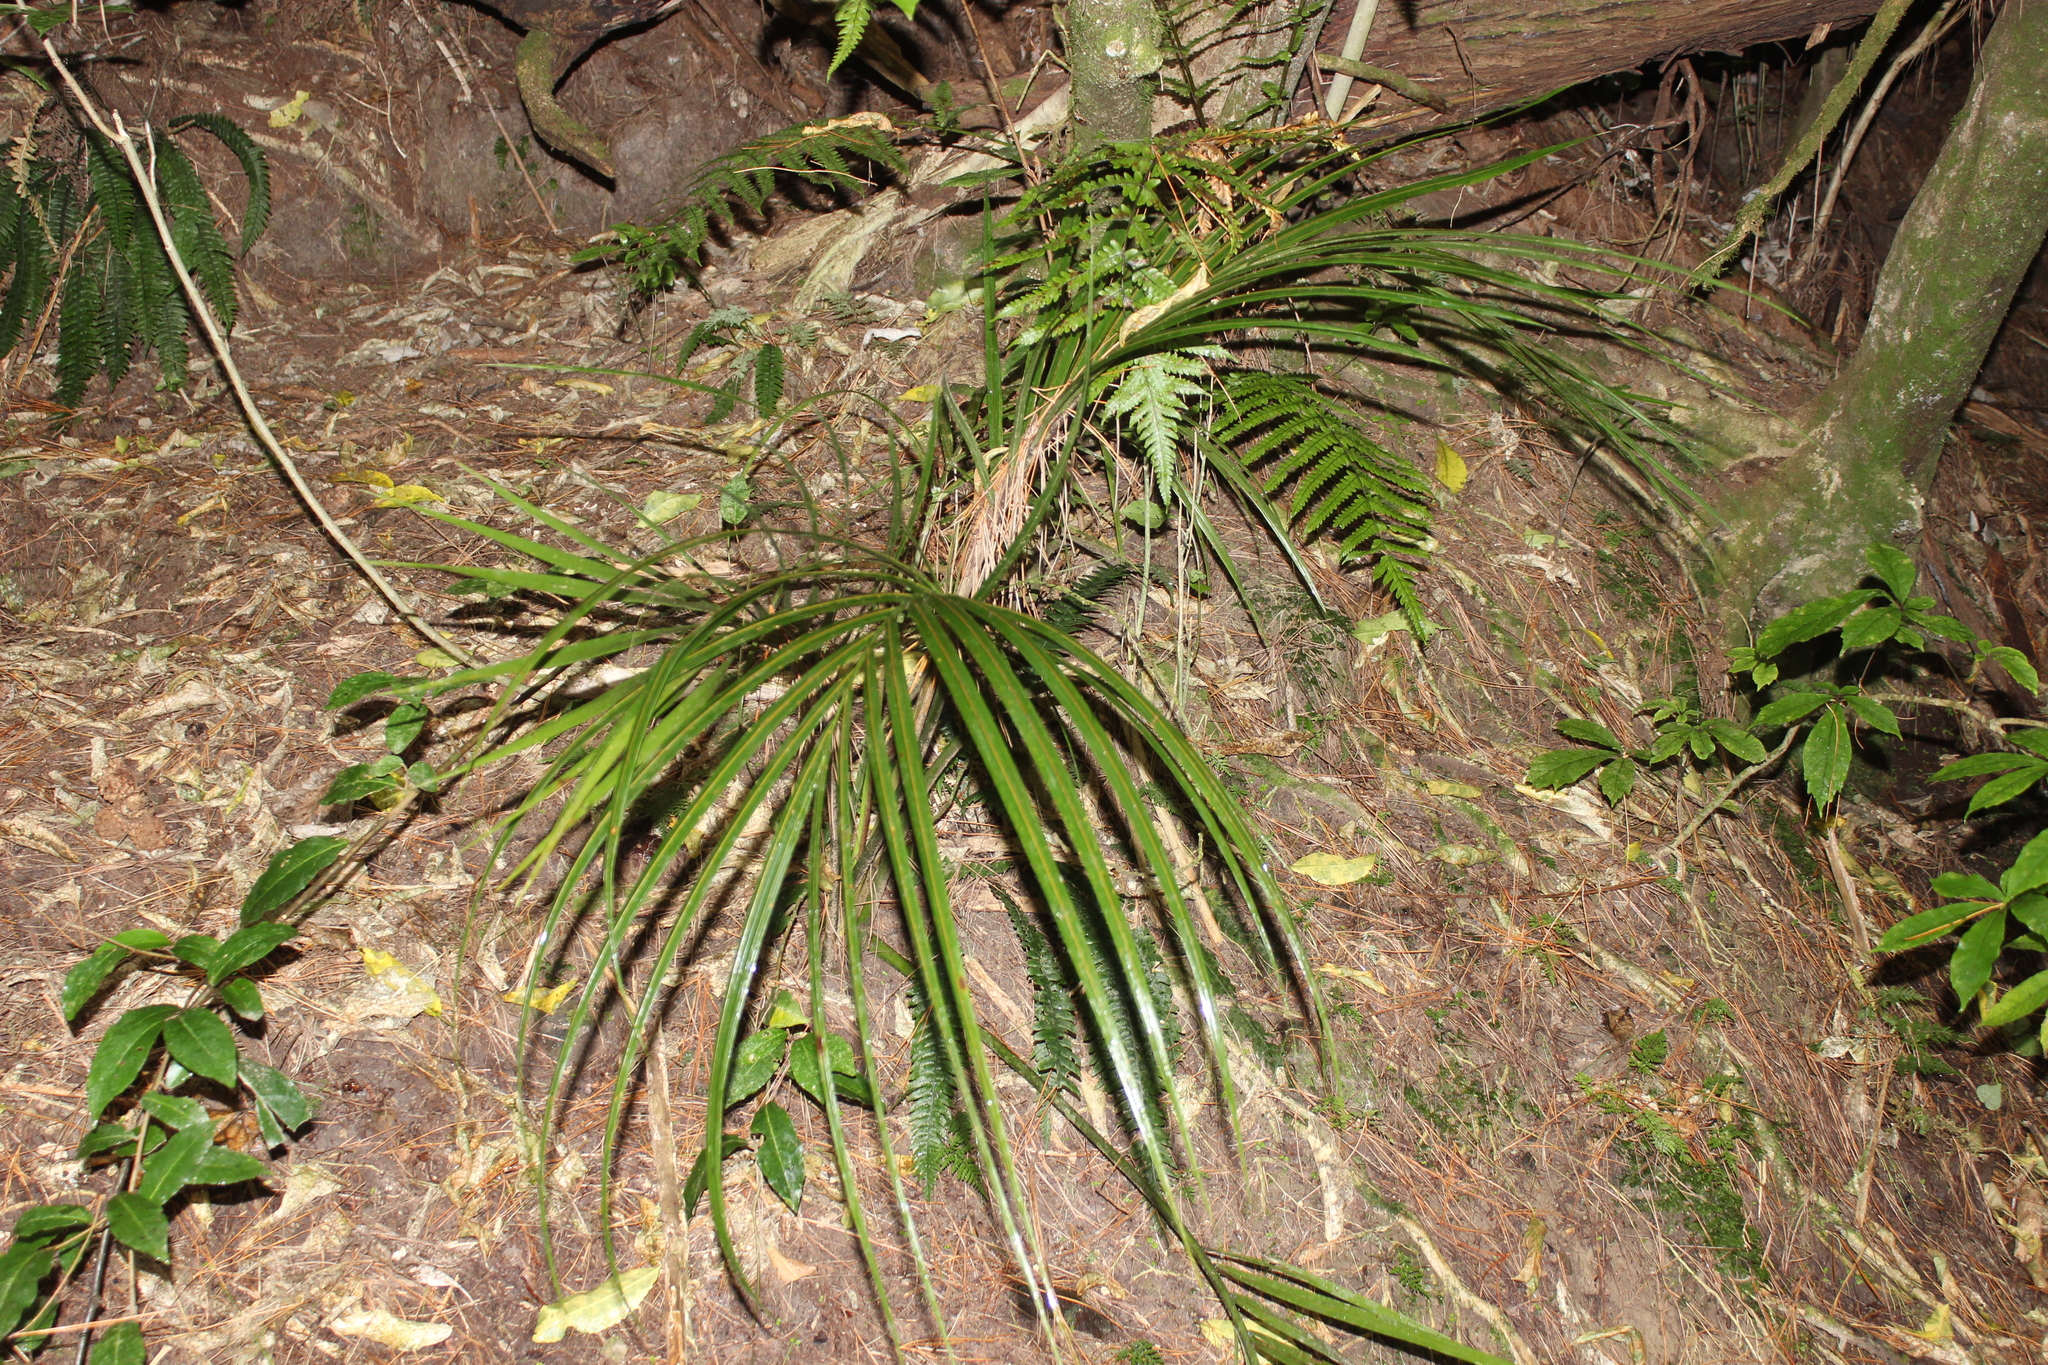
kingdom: Plantae
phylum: Tracheophyta
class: Liliopsida
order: Arecales
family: Arecaceae
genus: Rhopalostylis
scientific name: Rhopalostylis sapida
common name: Feather-duster palm
